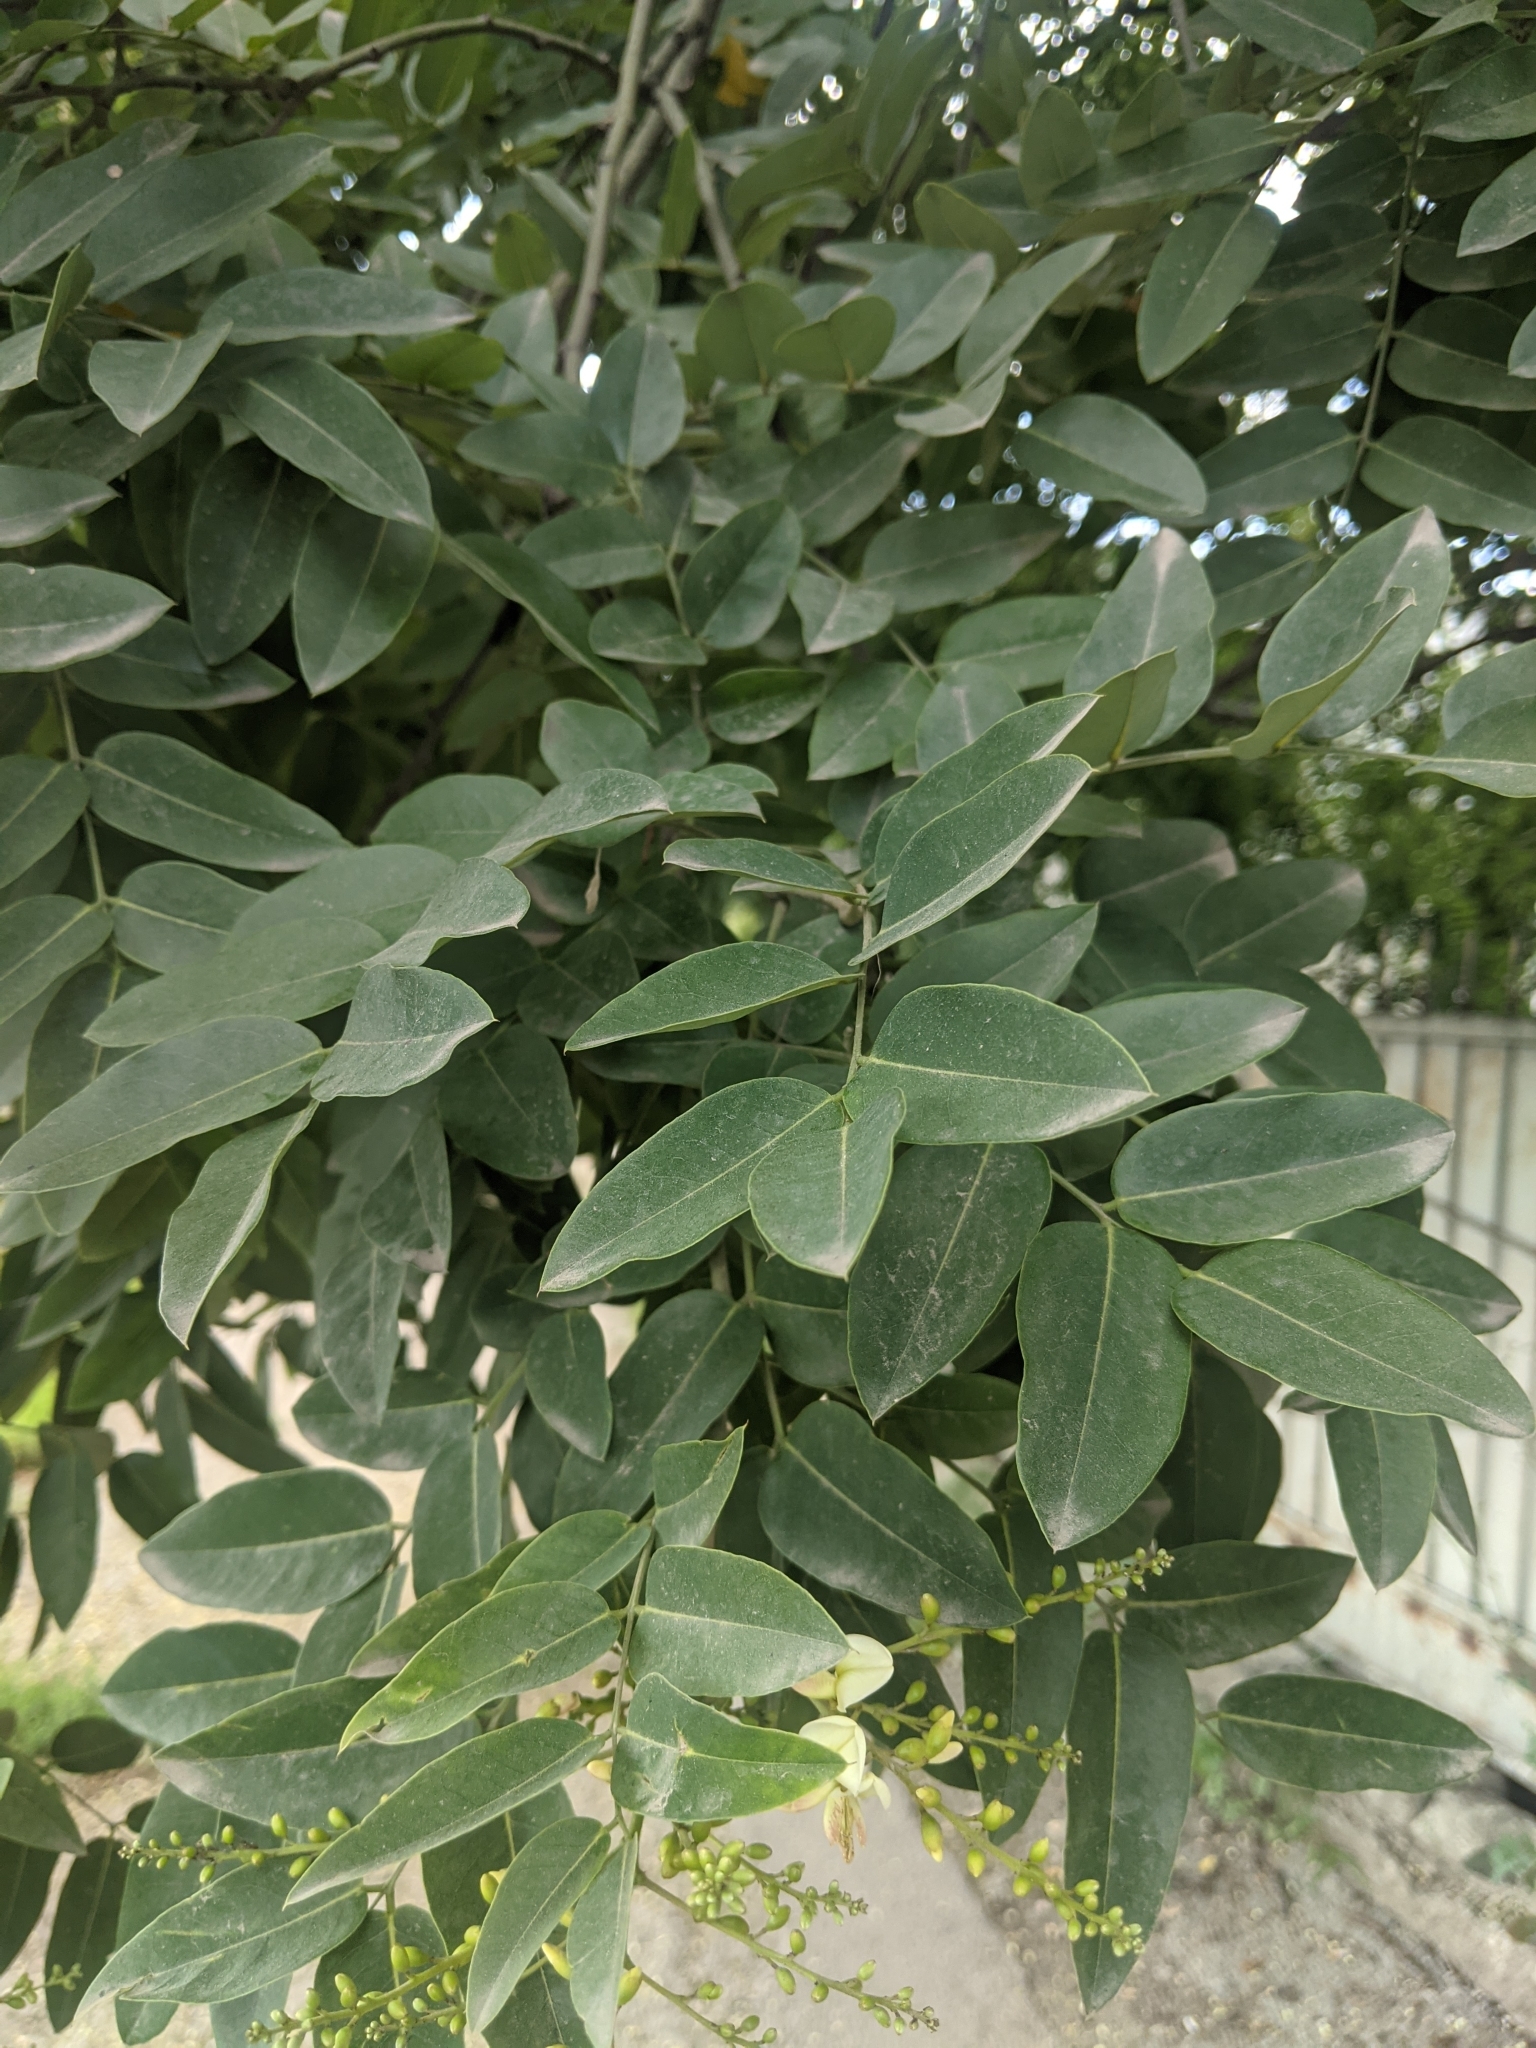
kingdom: Plantae
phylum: Tracheophyta
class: Magnoliopsida
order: Fabales
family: Fabaceae
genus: Styphnolobium
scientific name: Styphnolobium japonicum
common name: Chinese scholartree
